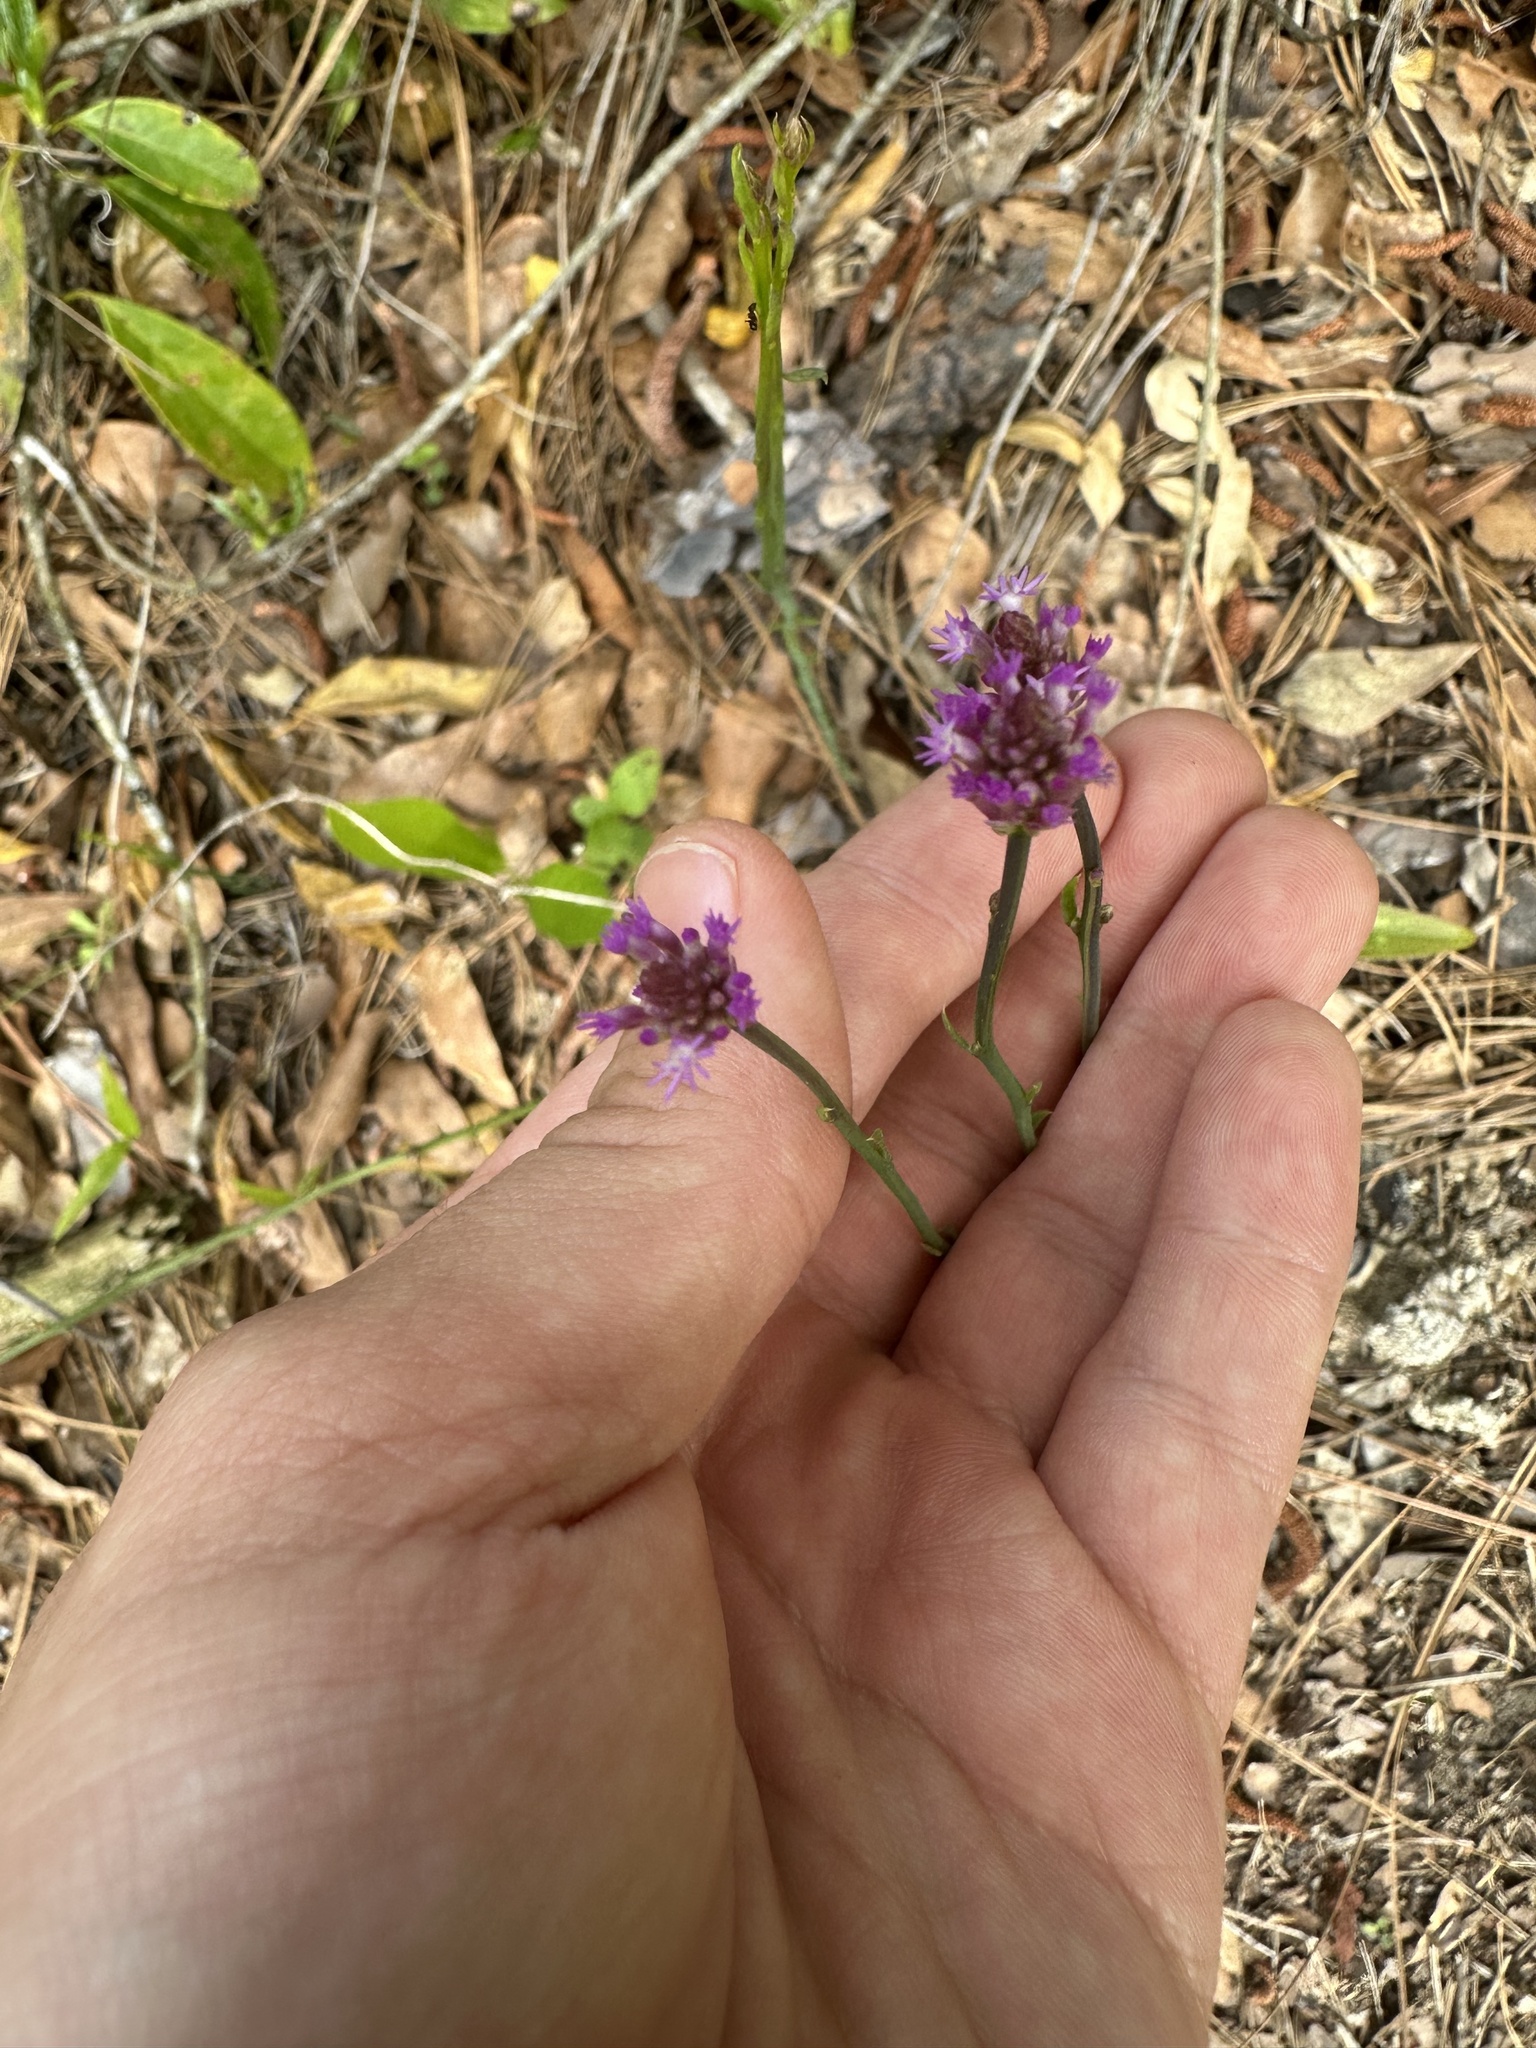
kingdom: Plantae
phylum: Tracheophyta
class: Magnoliopsida
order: Fabales
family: Polygalaceae
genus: Polygala
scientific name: Polygala incarnata
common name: Pink milkwort
